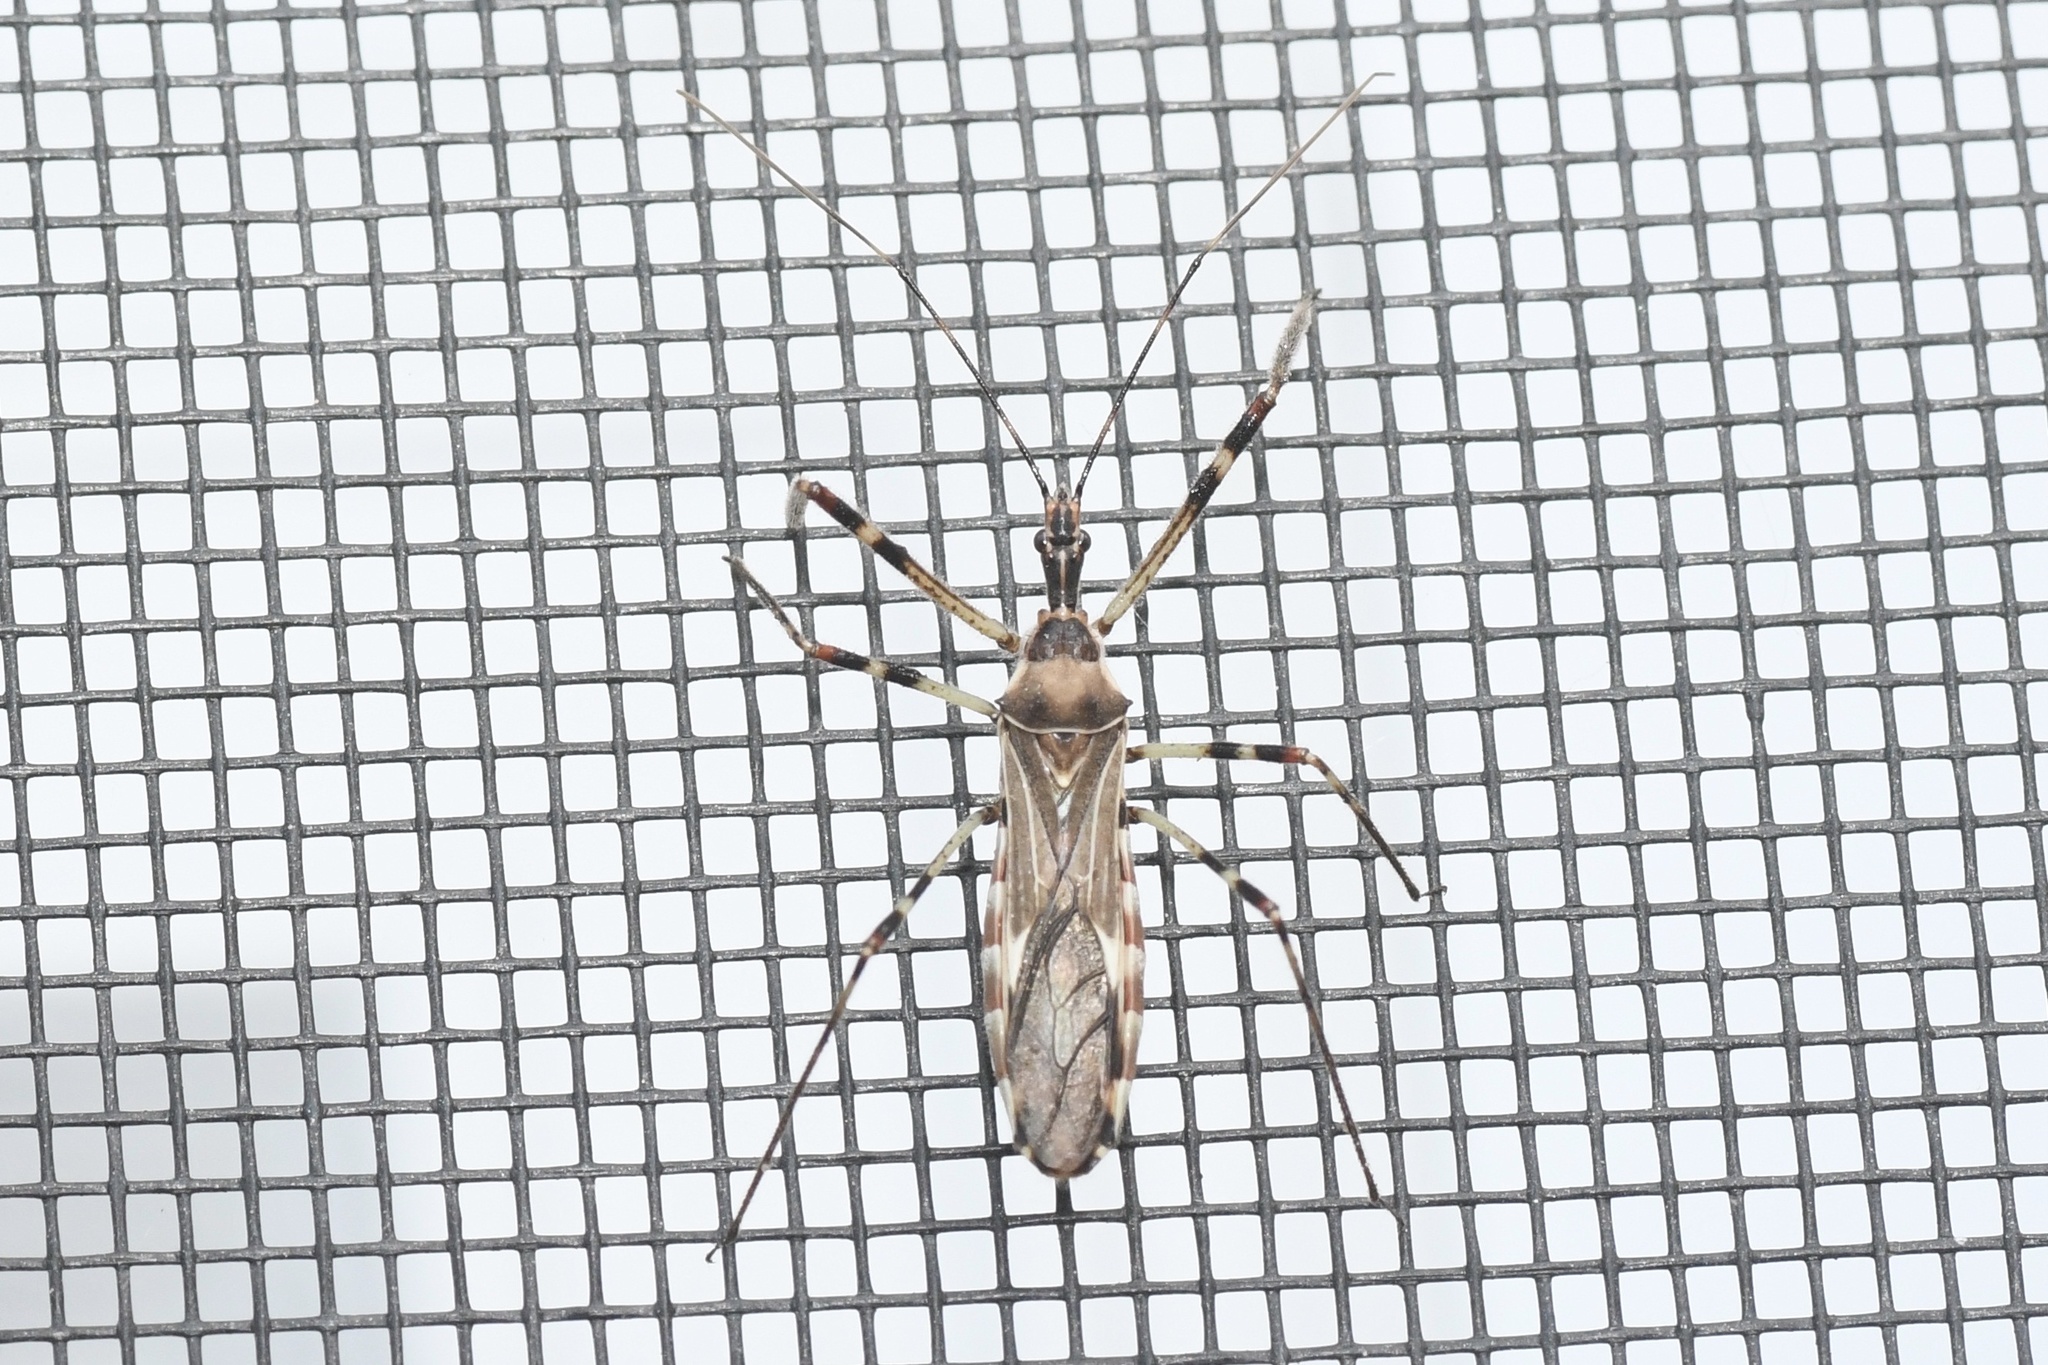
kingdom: Animalia
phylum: Arthropoda
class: Insecta
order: Hemiptera
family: Reduviidae
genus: Zelus
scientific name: Zelus tetracanthus
